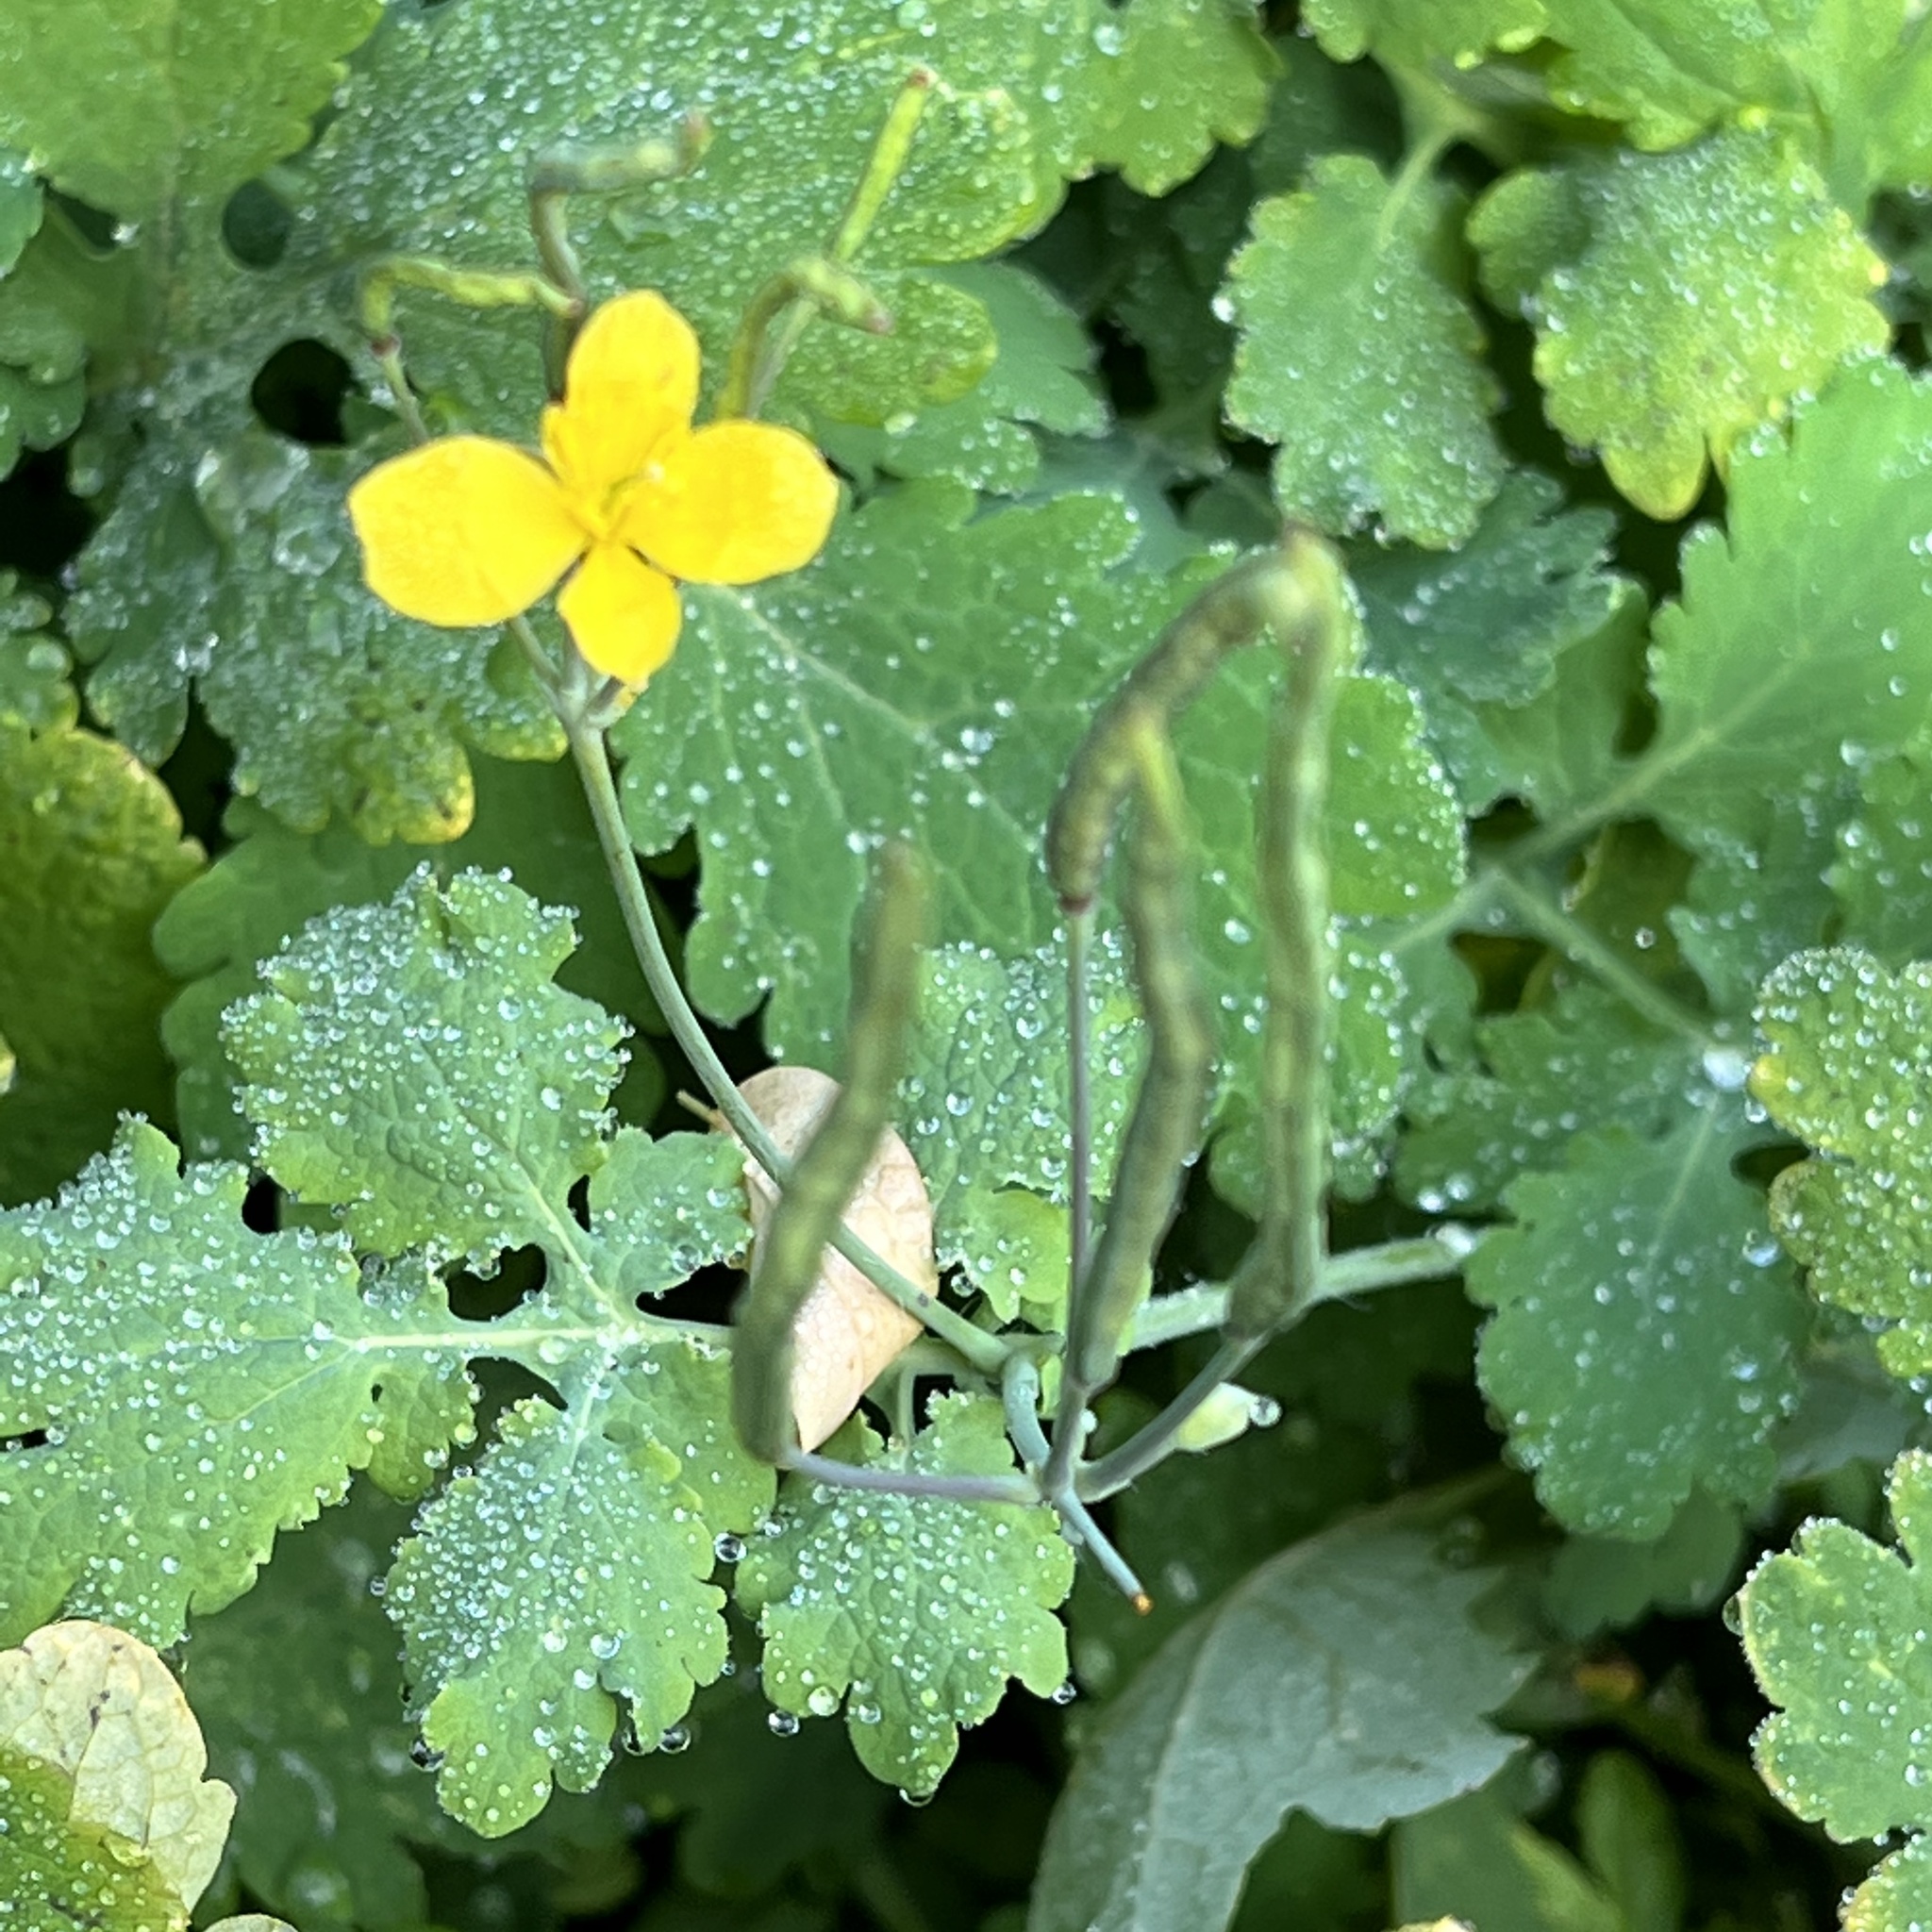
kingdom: Plantae
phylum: Tracheophyta
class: Magnoliopsida
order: Ranunculales
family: Papaveraceae
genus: Chelidonium
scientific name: Chelidonium majus
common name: Greater celandine
